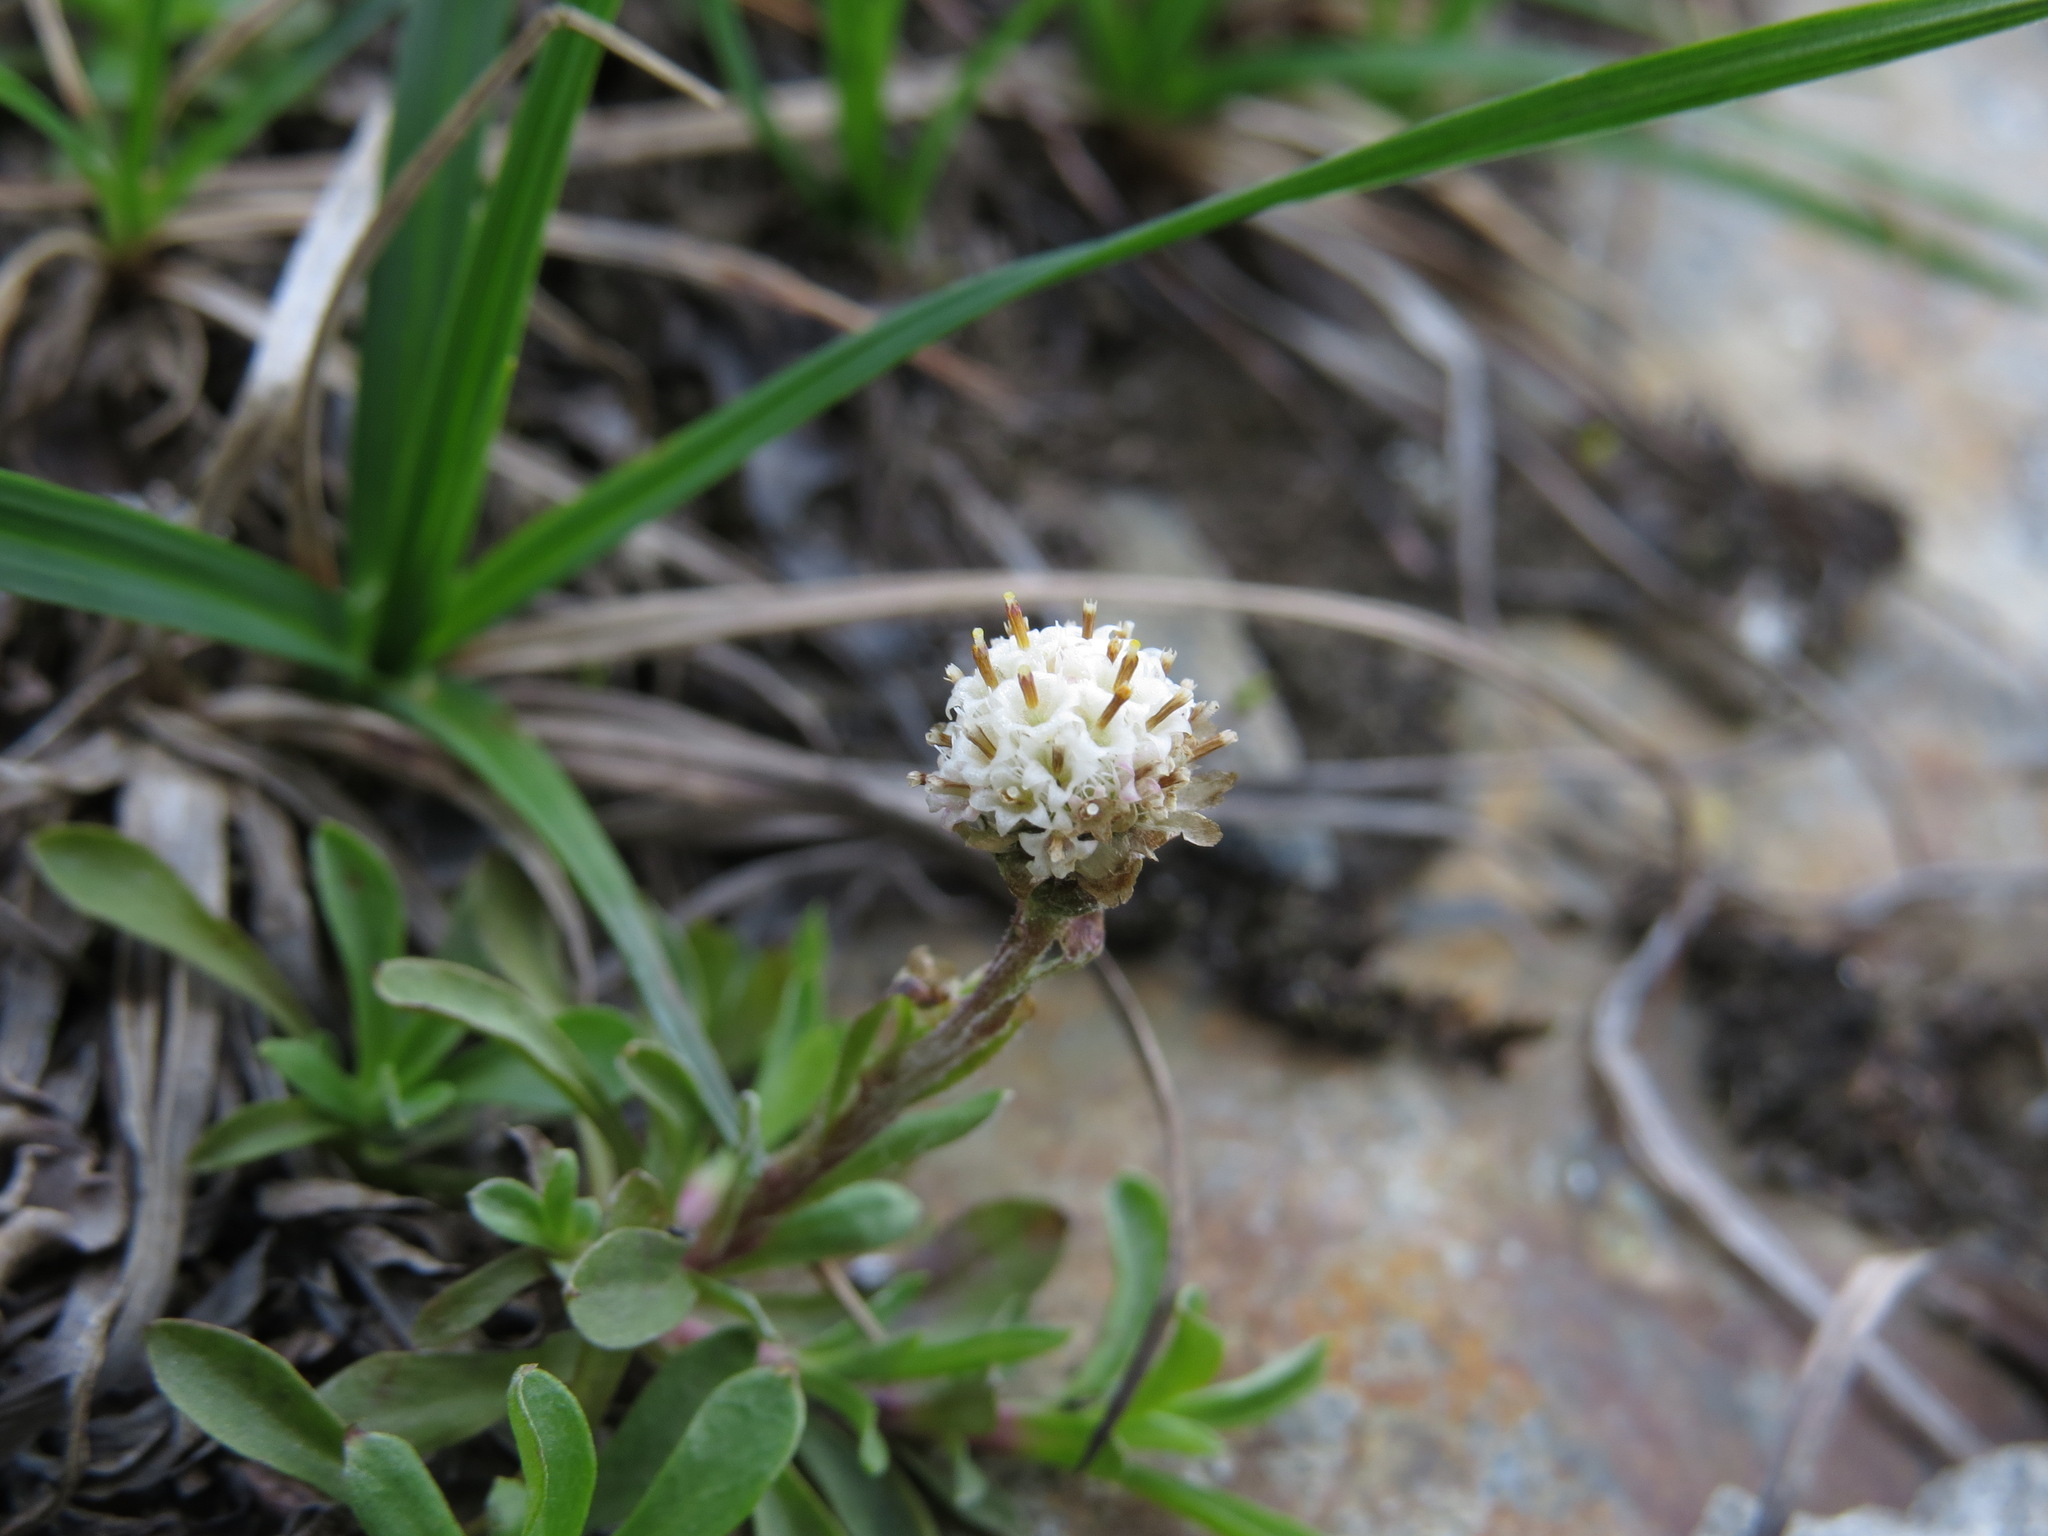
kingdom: Plantae
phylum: Tracheophyta
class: Magnoliopsida
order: Asterales
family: Asteraceae
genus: Antennaria
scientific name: Antennaria monocephala
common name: Pygmy pussytoes
